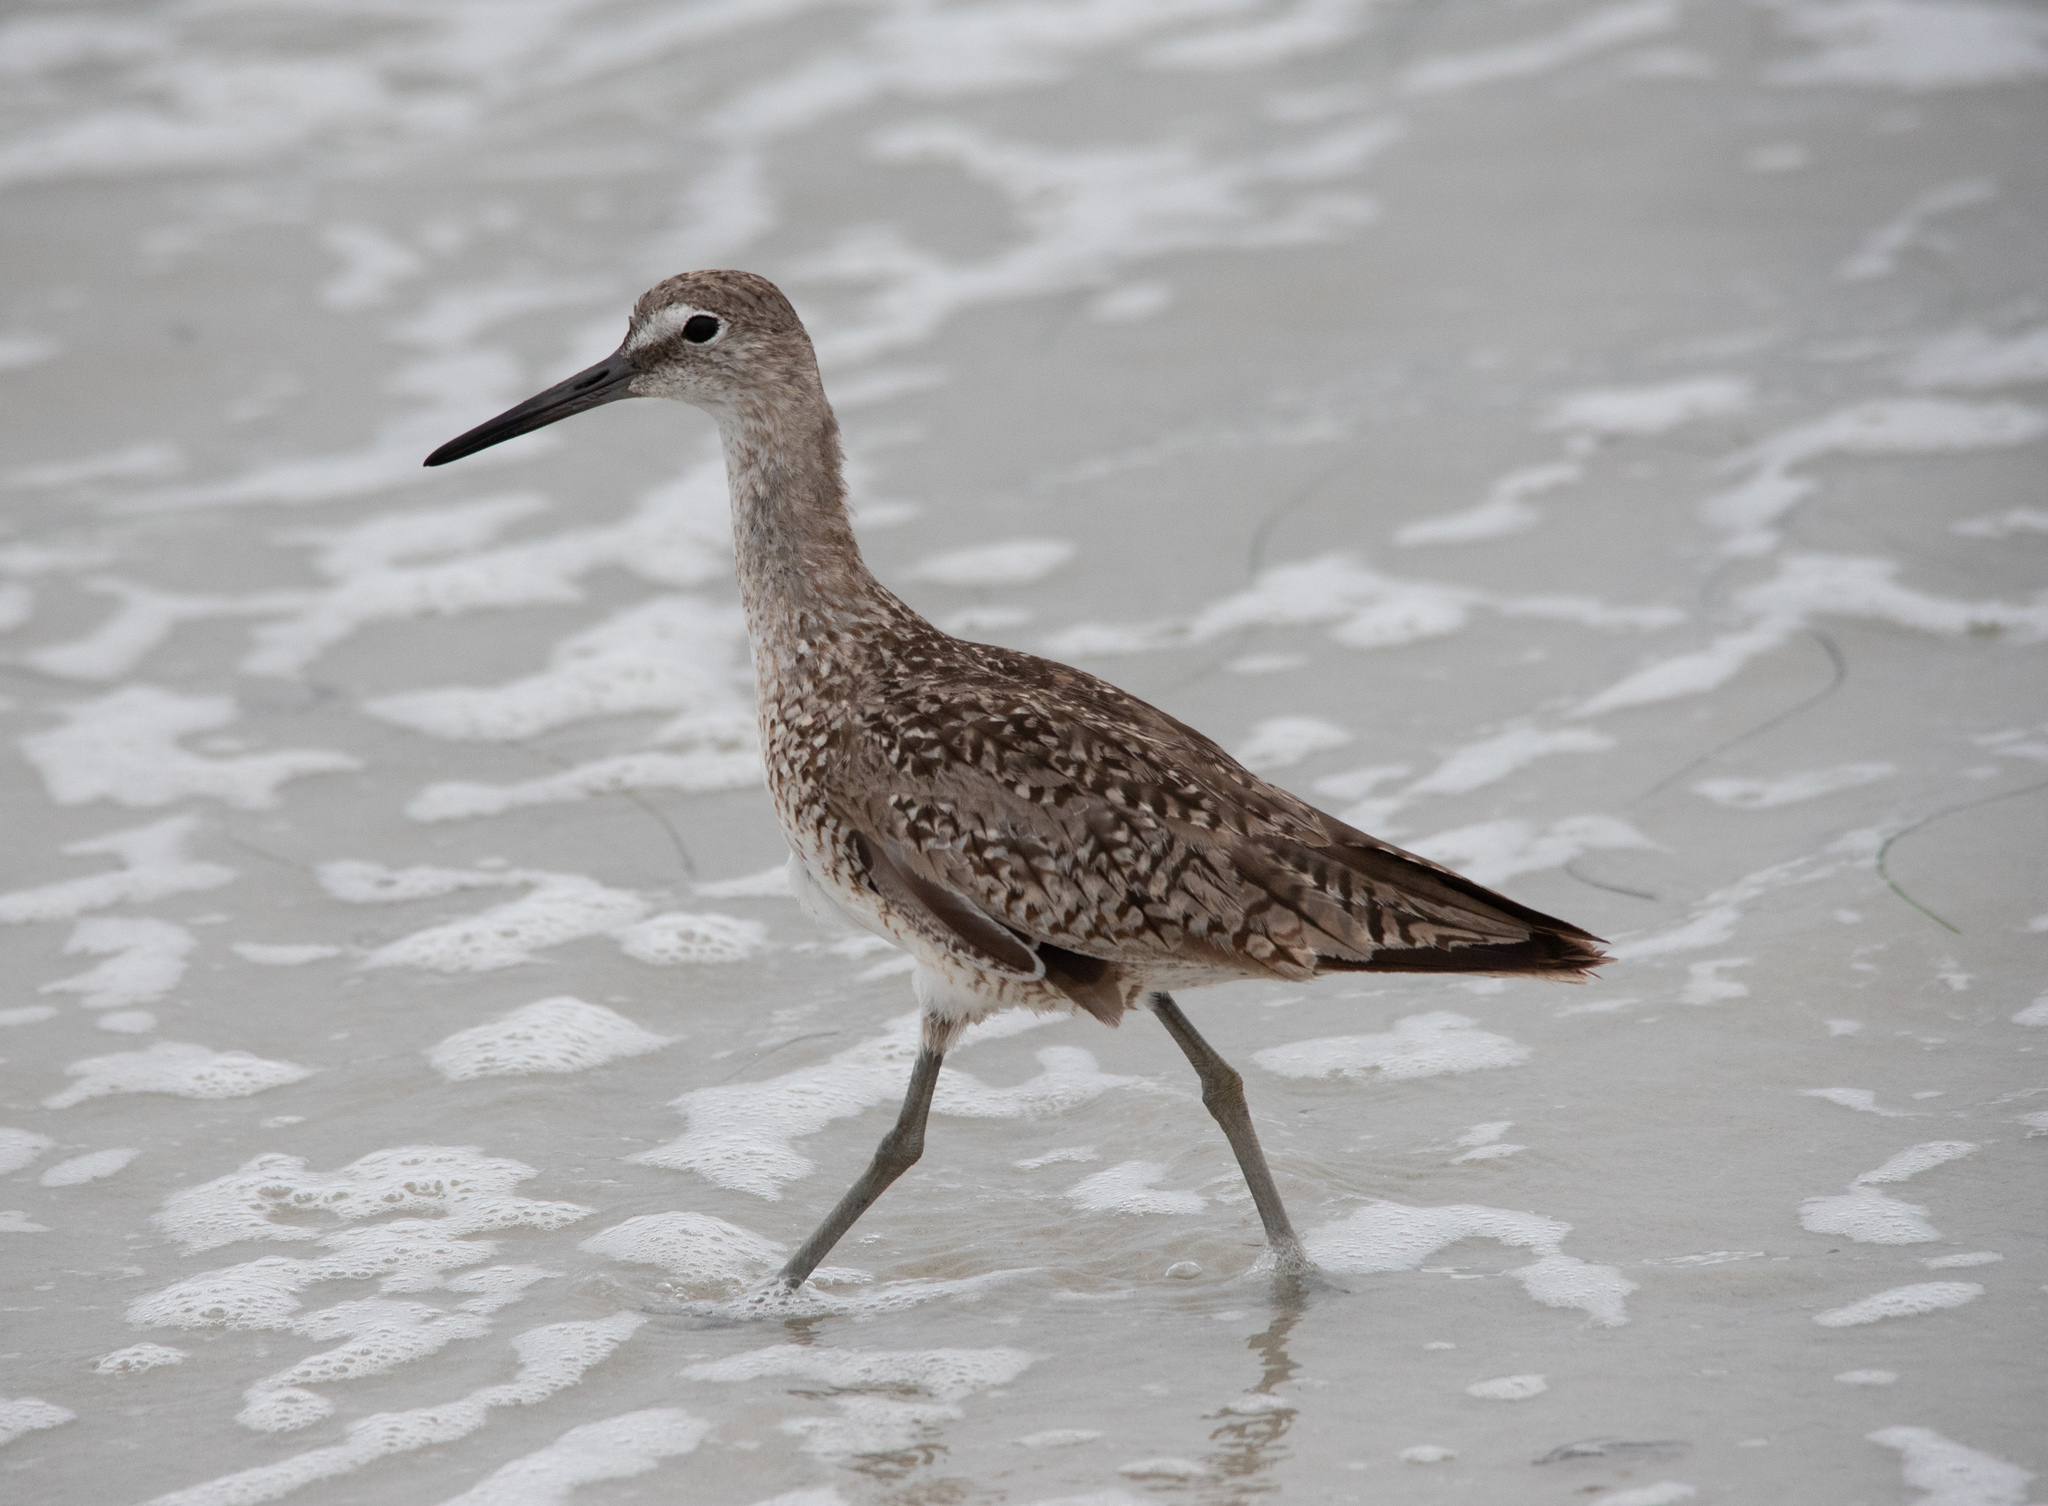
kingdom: Animalia
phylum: Chordata
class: Aves
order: Charadriiformes
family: Scolopacidae
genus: Tringa
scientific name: Tringa semipalmata
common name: Willet
